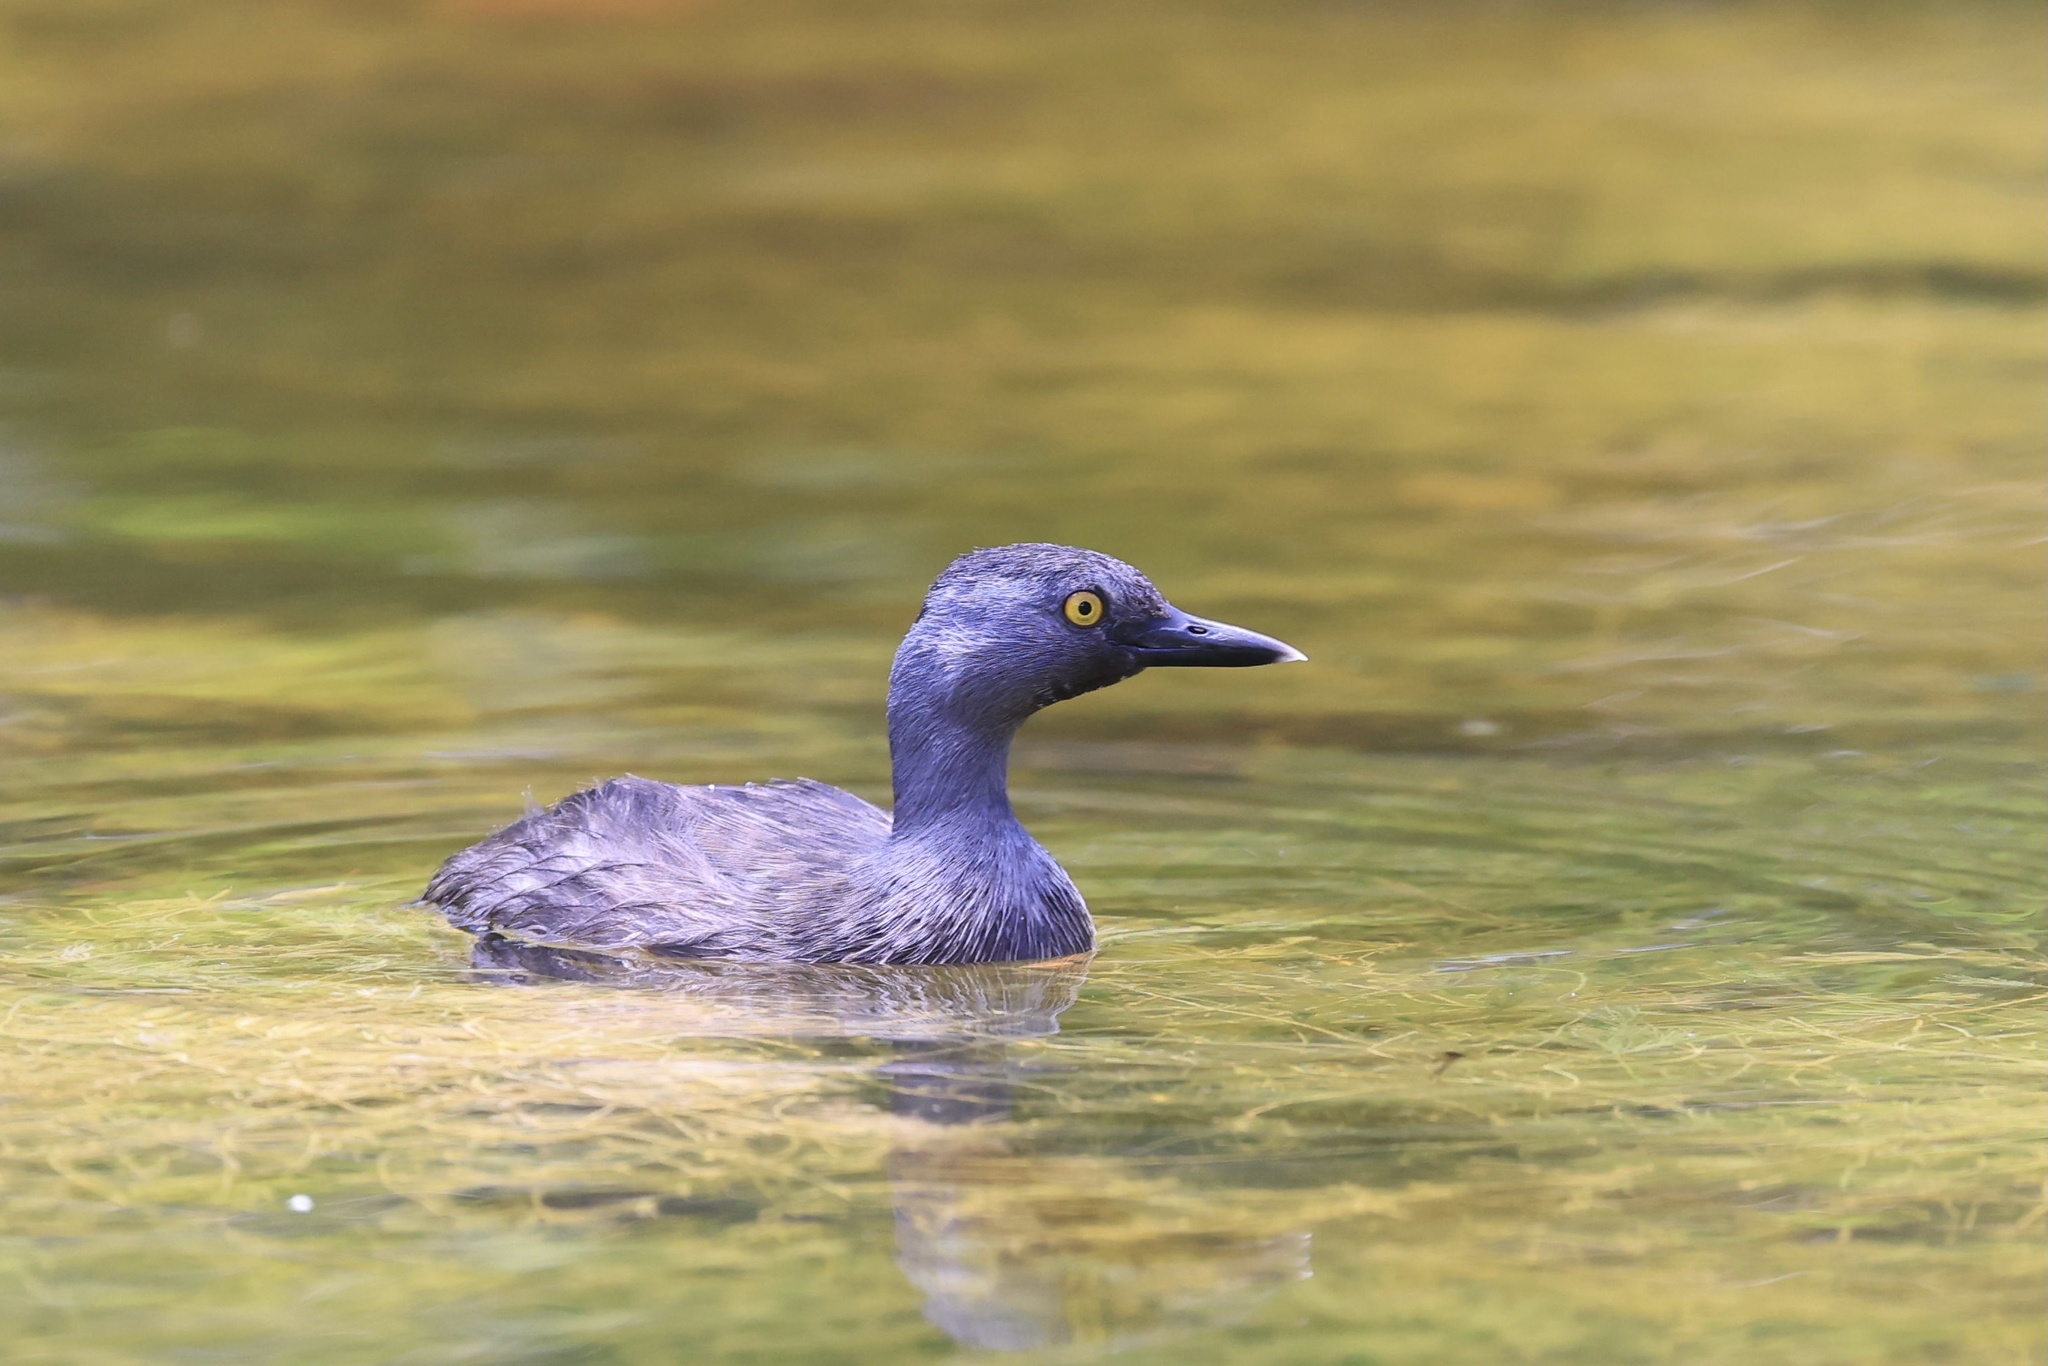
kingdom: Animalia
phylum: Chordata
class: Aves
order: Podicipediformes
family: Podicipedidae
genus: Tachybaptus
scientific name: Tachybaptus dominicus
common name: Least grebe
